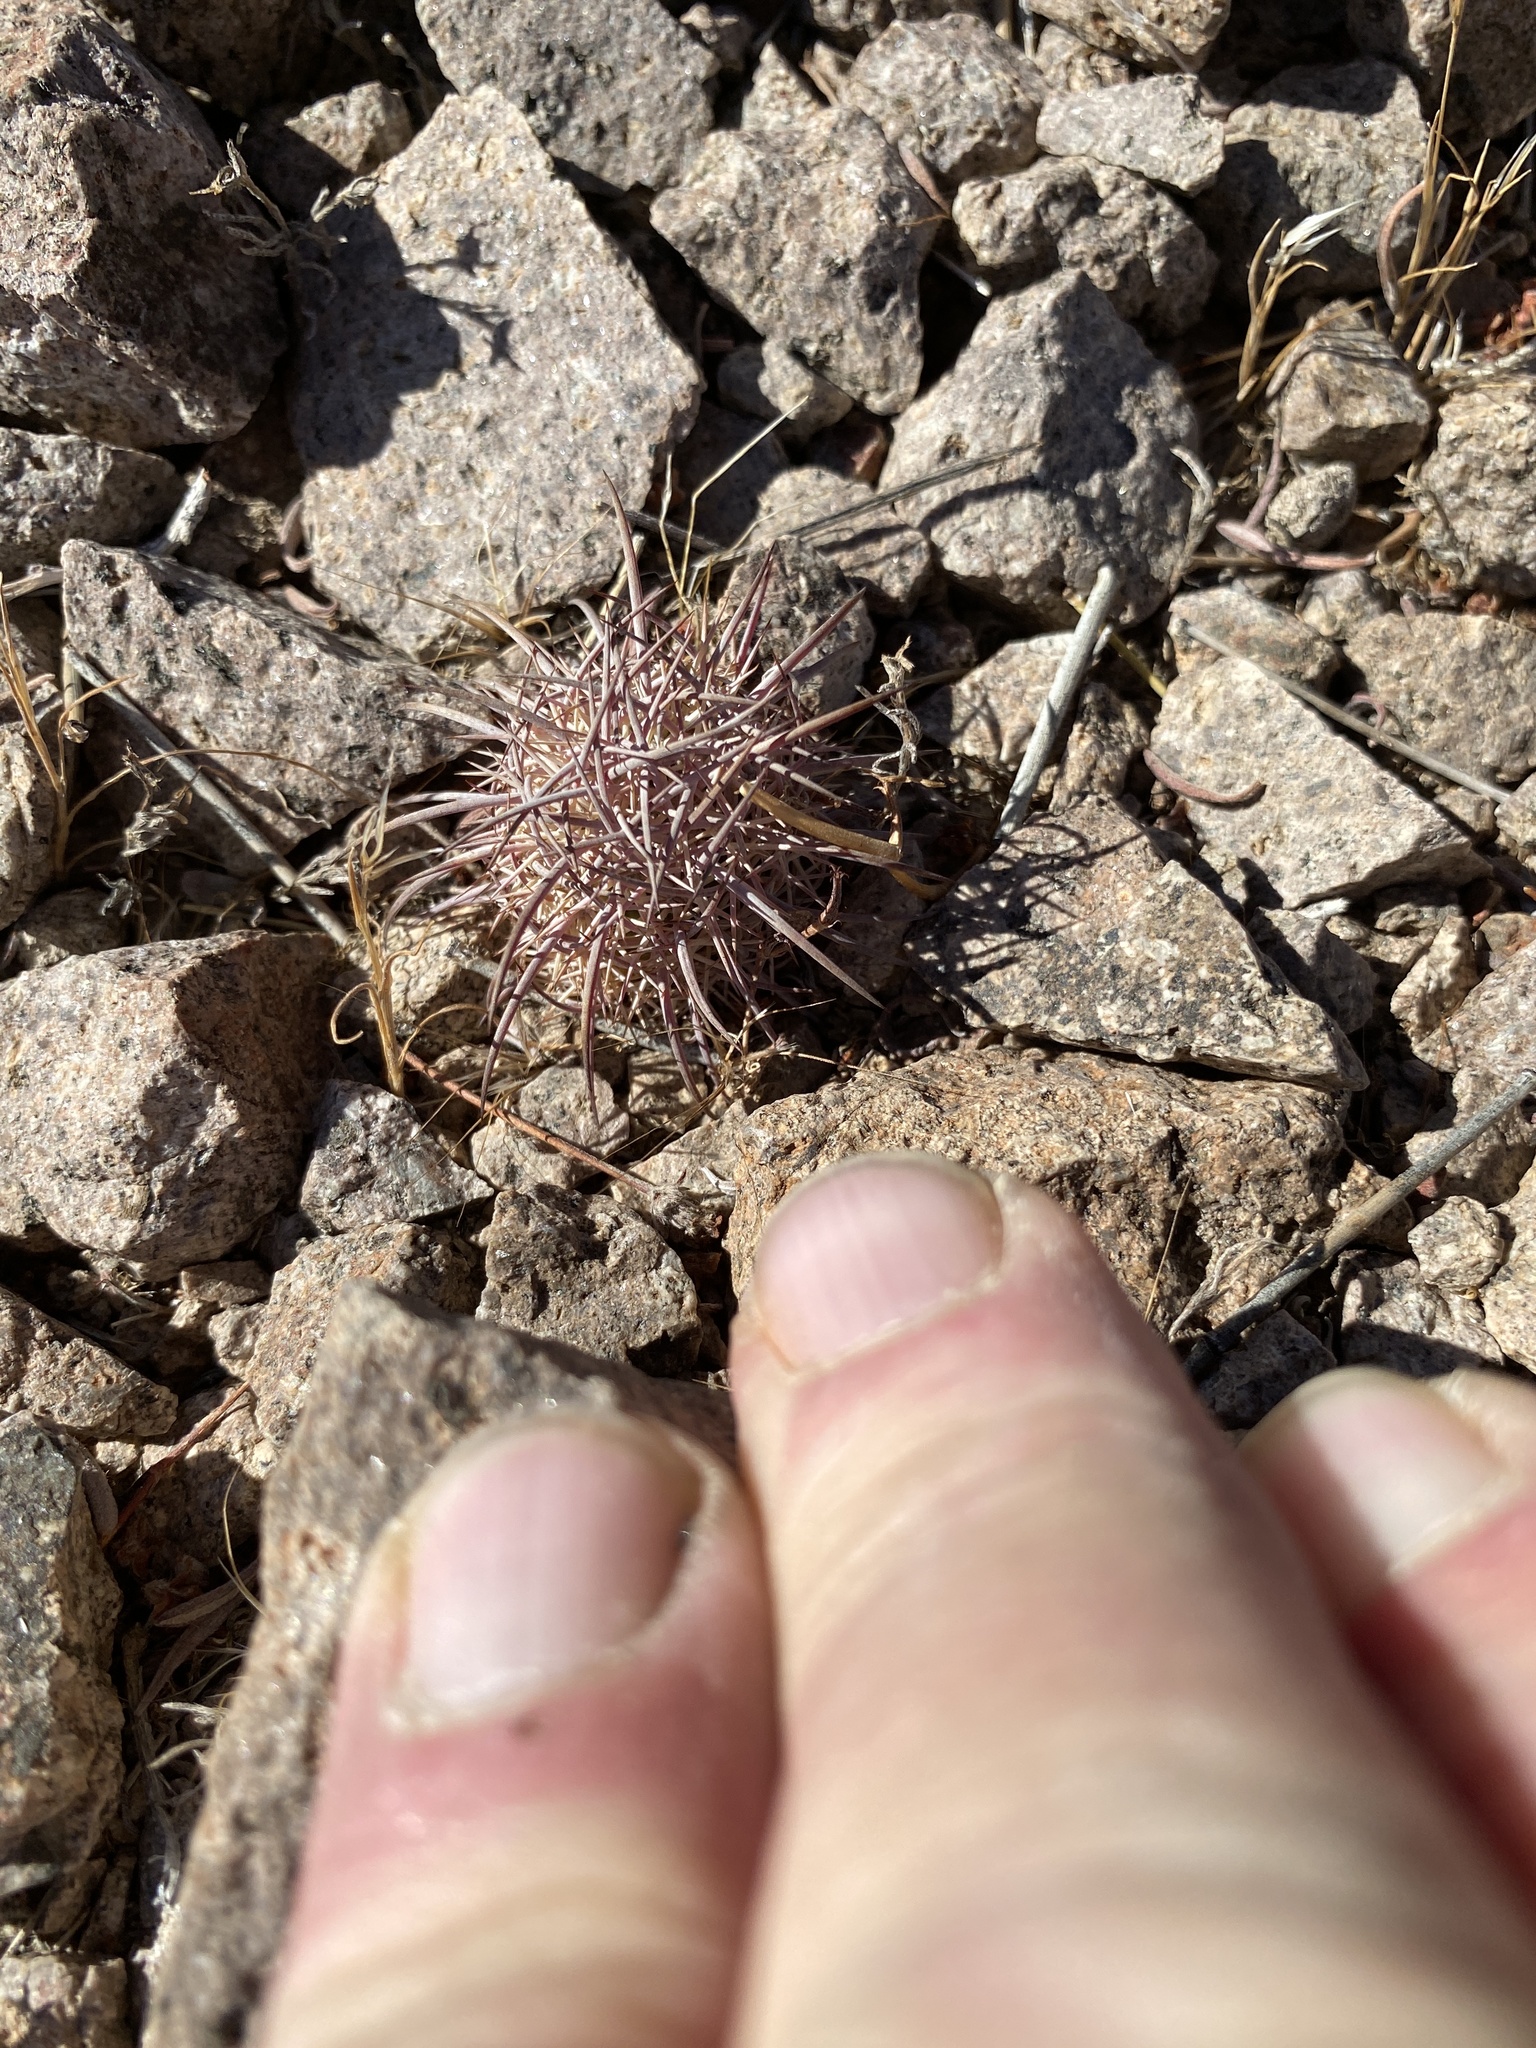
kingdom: Plantae
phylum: Tracheophyta
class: Magnoliopsida
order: Caryophyllales
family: Cactaceae
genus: Sclerocactus
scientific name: Sclerocactus johnsonii
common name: Eight-spine fishhook cactus
